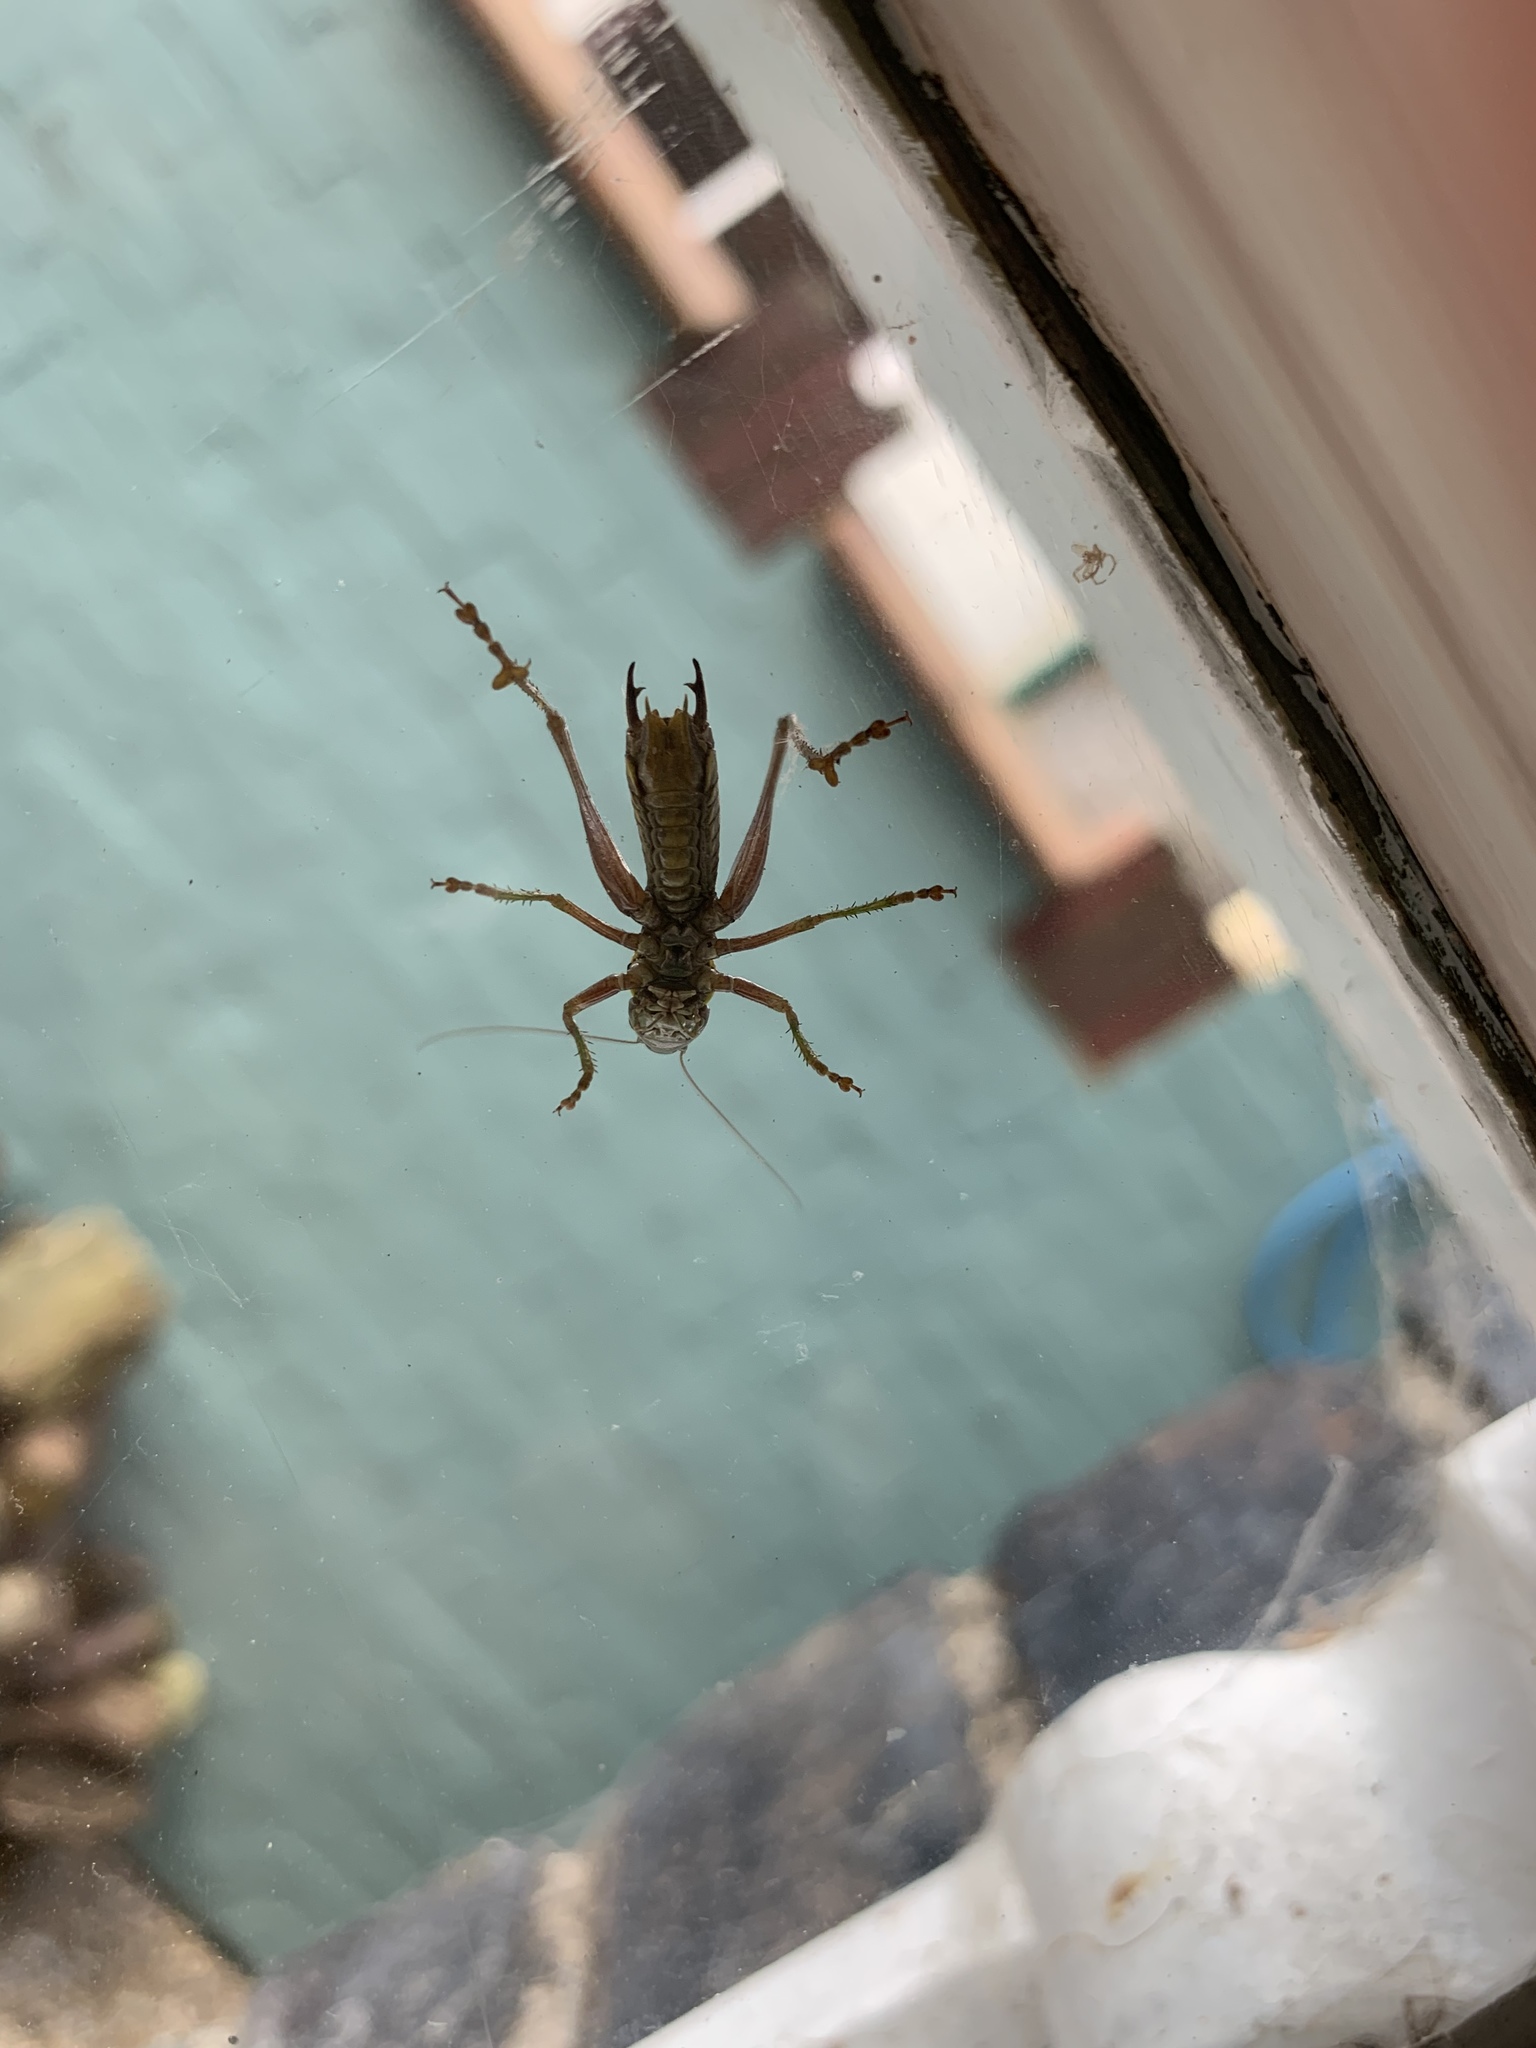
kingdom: Animalia
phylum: Arthropoda
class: Insecta
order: Orthoptera
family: Tettigoniidae
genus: Roeseliana
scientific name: Roeseliana roeselii
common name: Roesel's bush cricket
